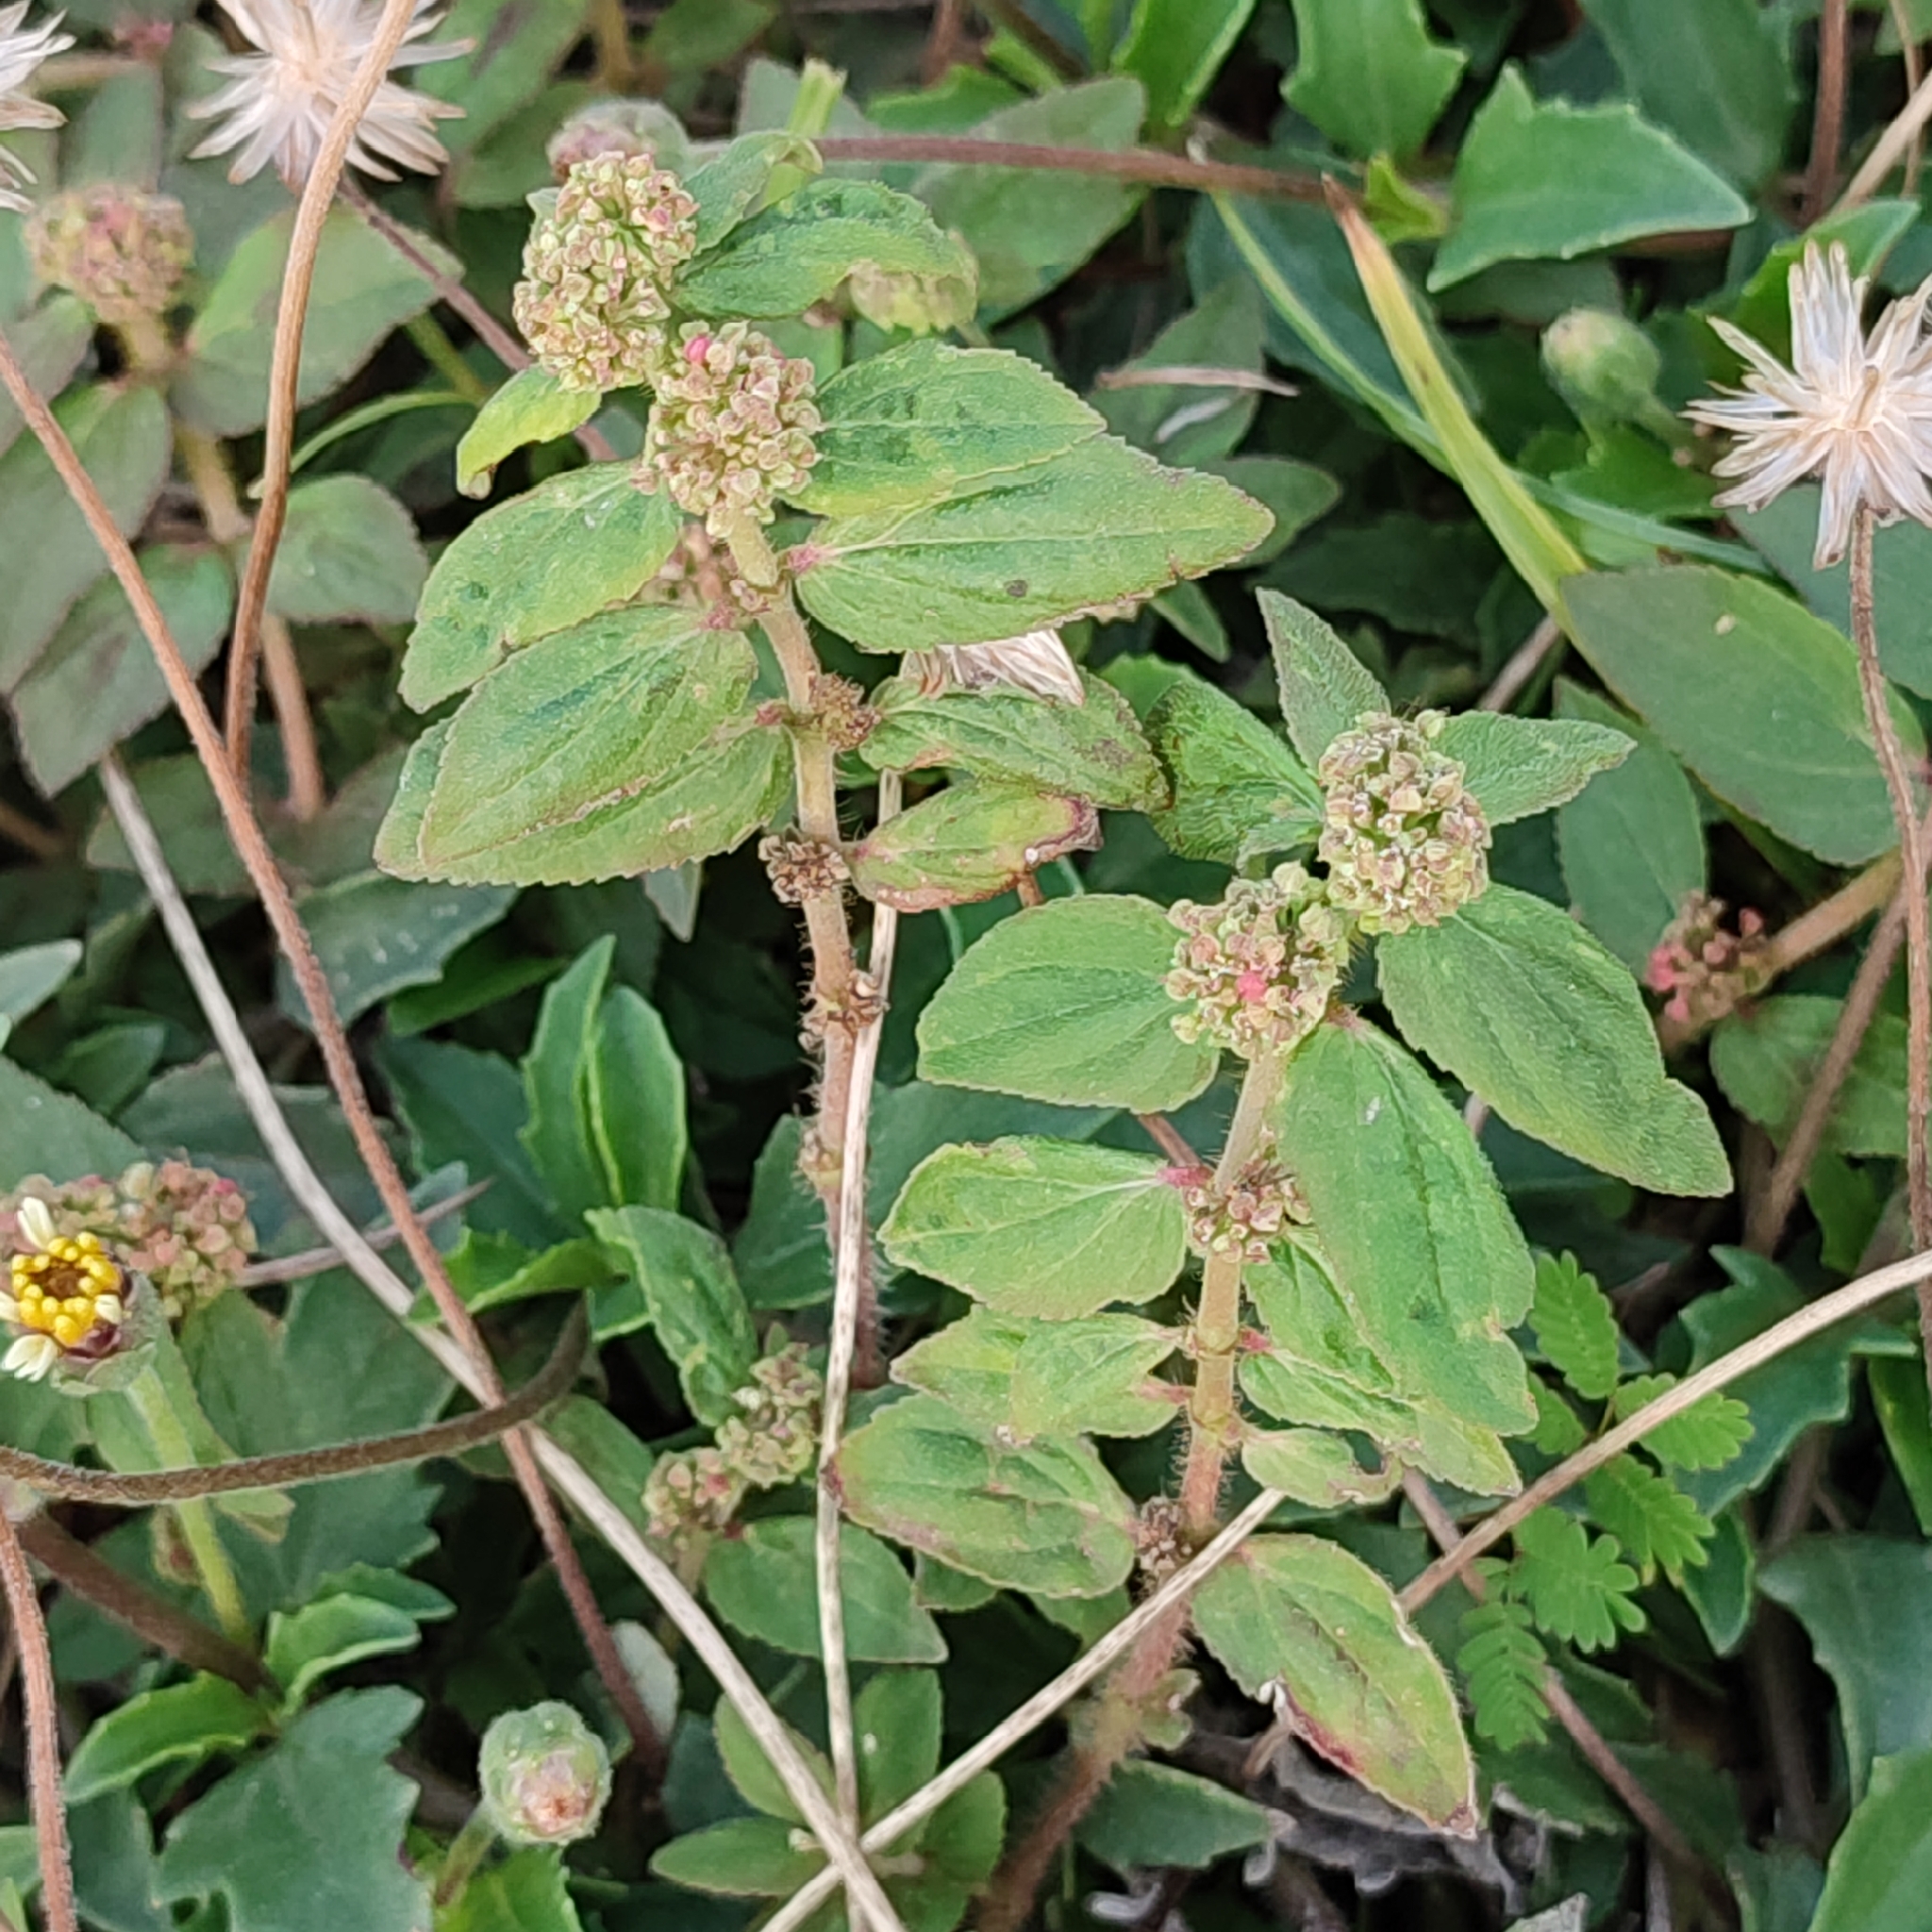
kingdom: Plantae
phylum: Tracheophyta
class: Magnoliopsida
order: Malpighiales
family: Euphorbiaceae
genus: Euphorbia
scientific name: Euphorbia hirta
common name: Pillpod sandmat
